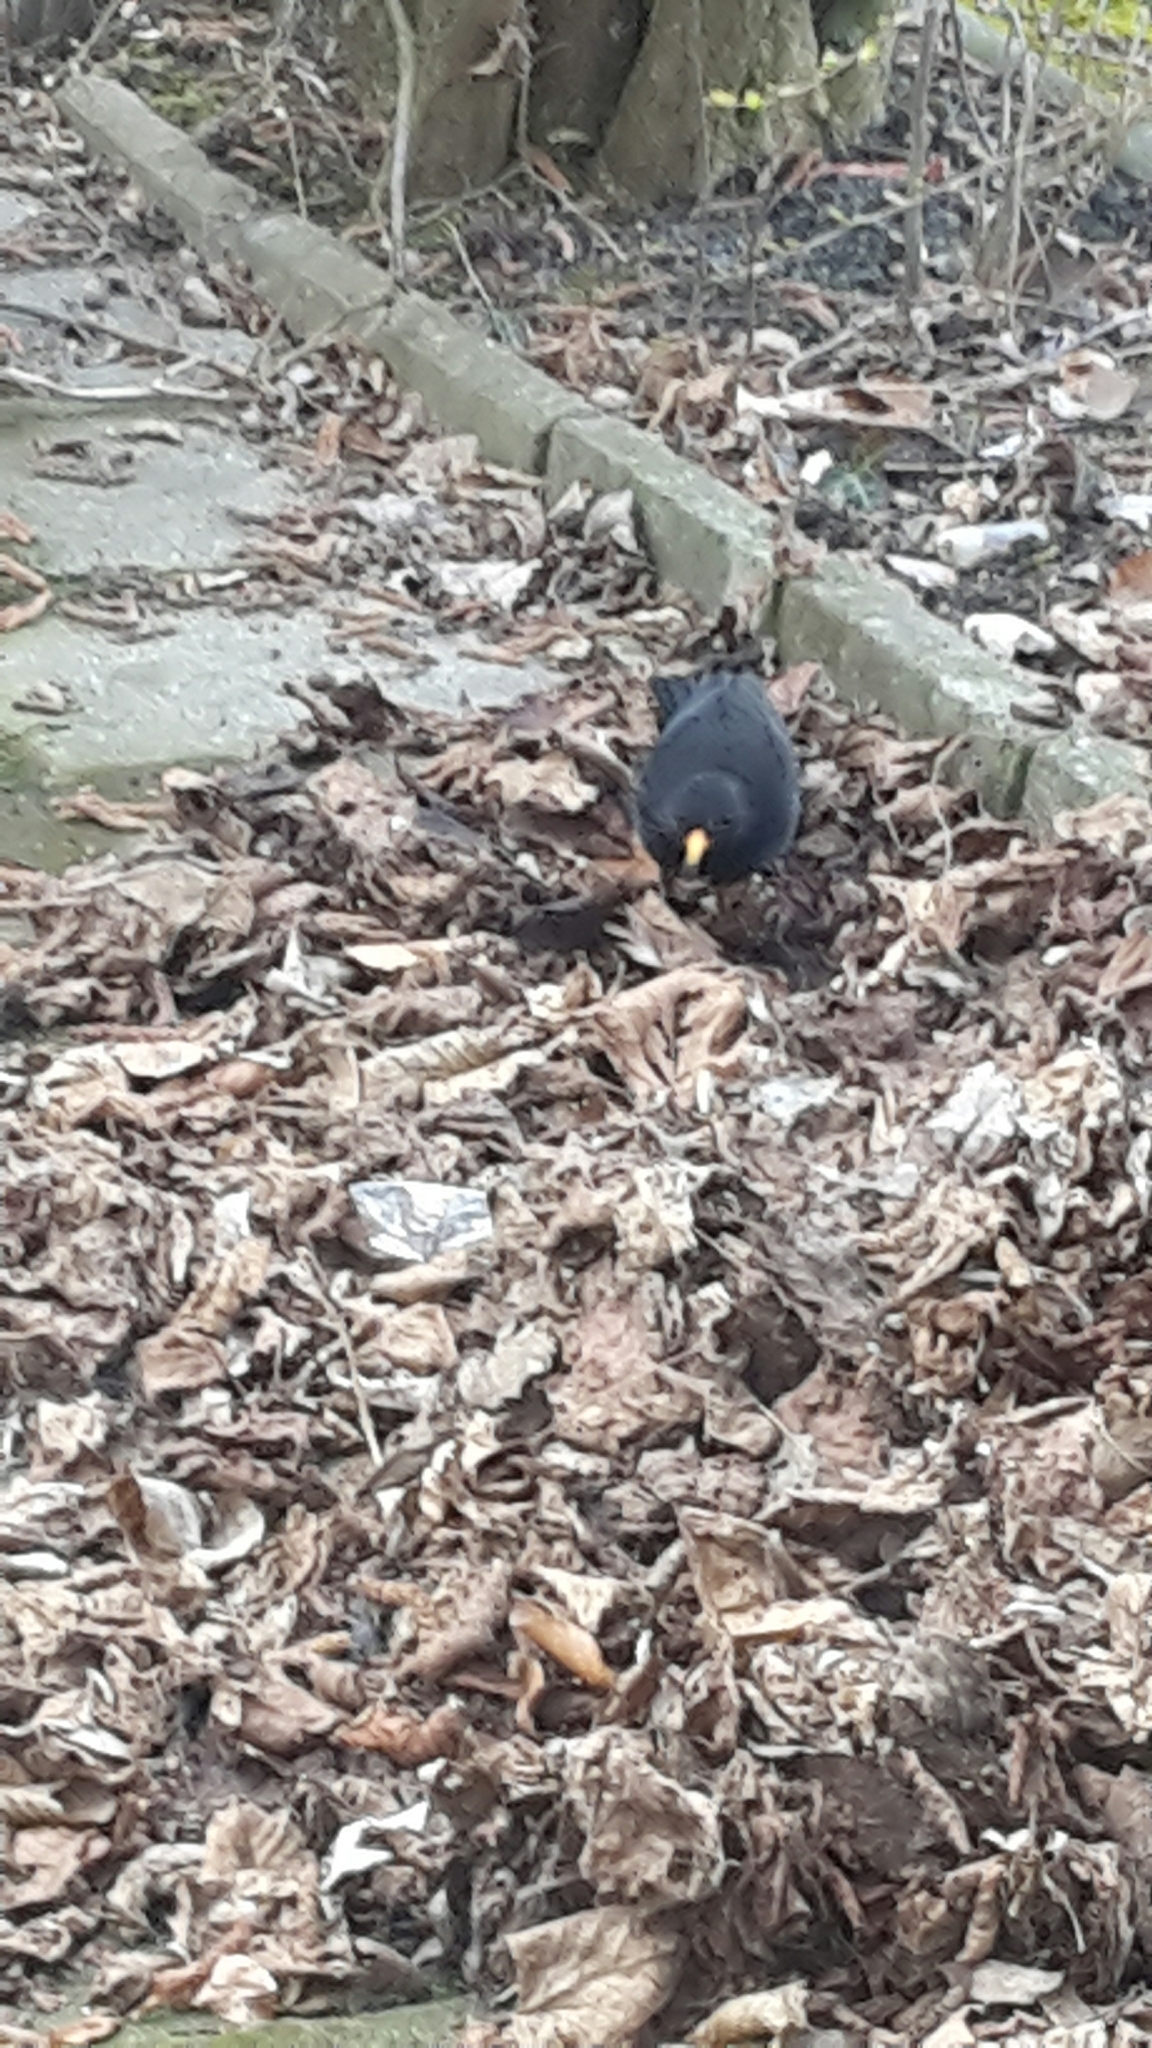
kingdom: Animalia
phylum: Chordata
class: Aves
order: Passeriformes
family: Turdidae
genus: Turdus
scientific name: Turdus merula
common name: Common blackbird
